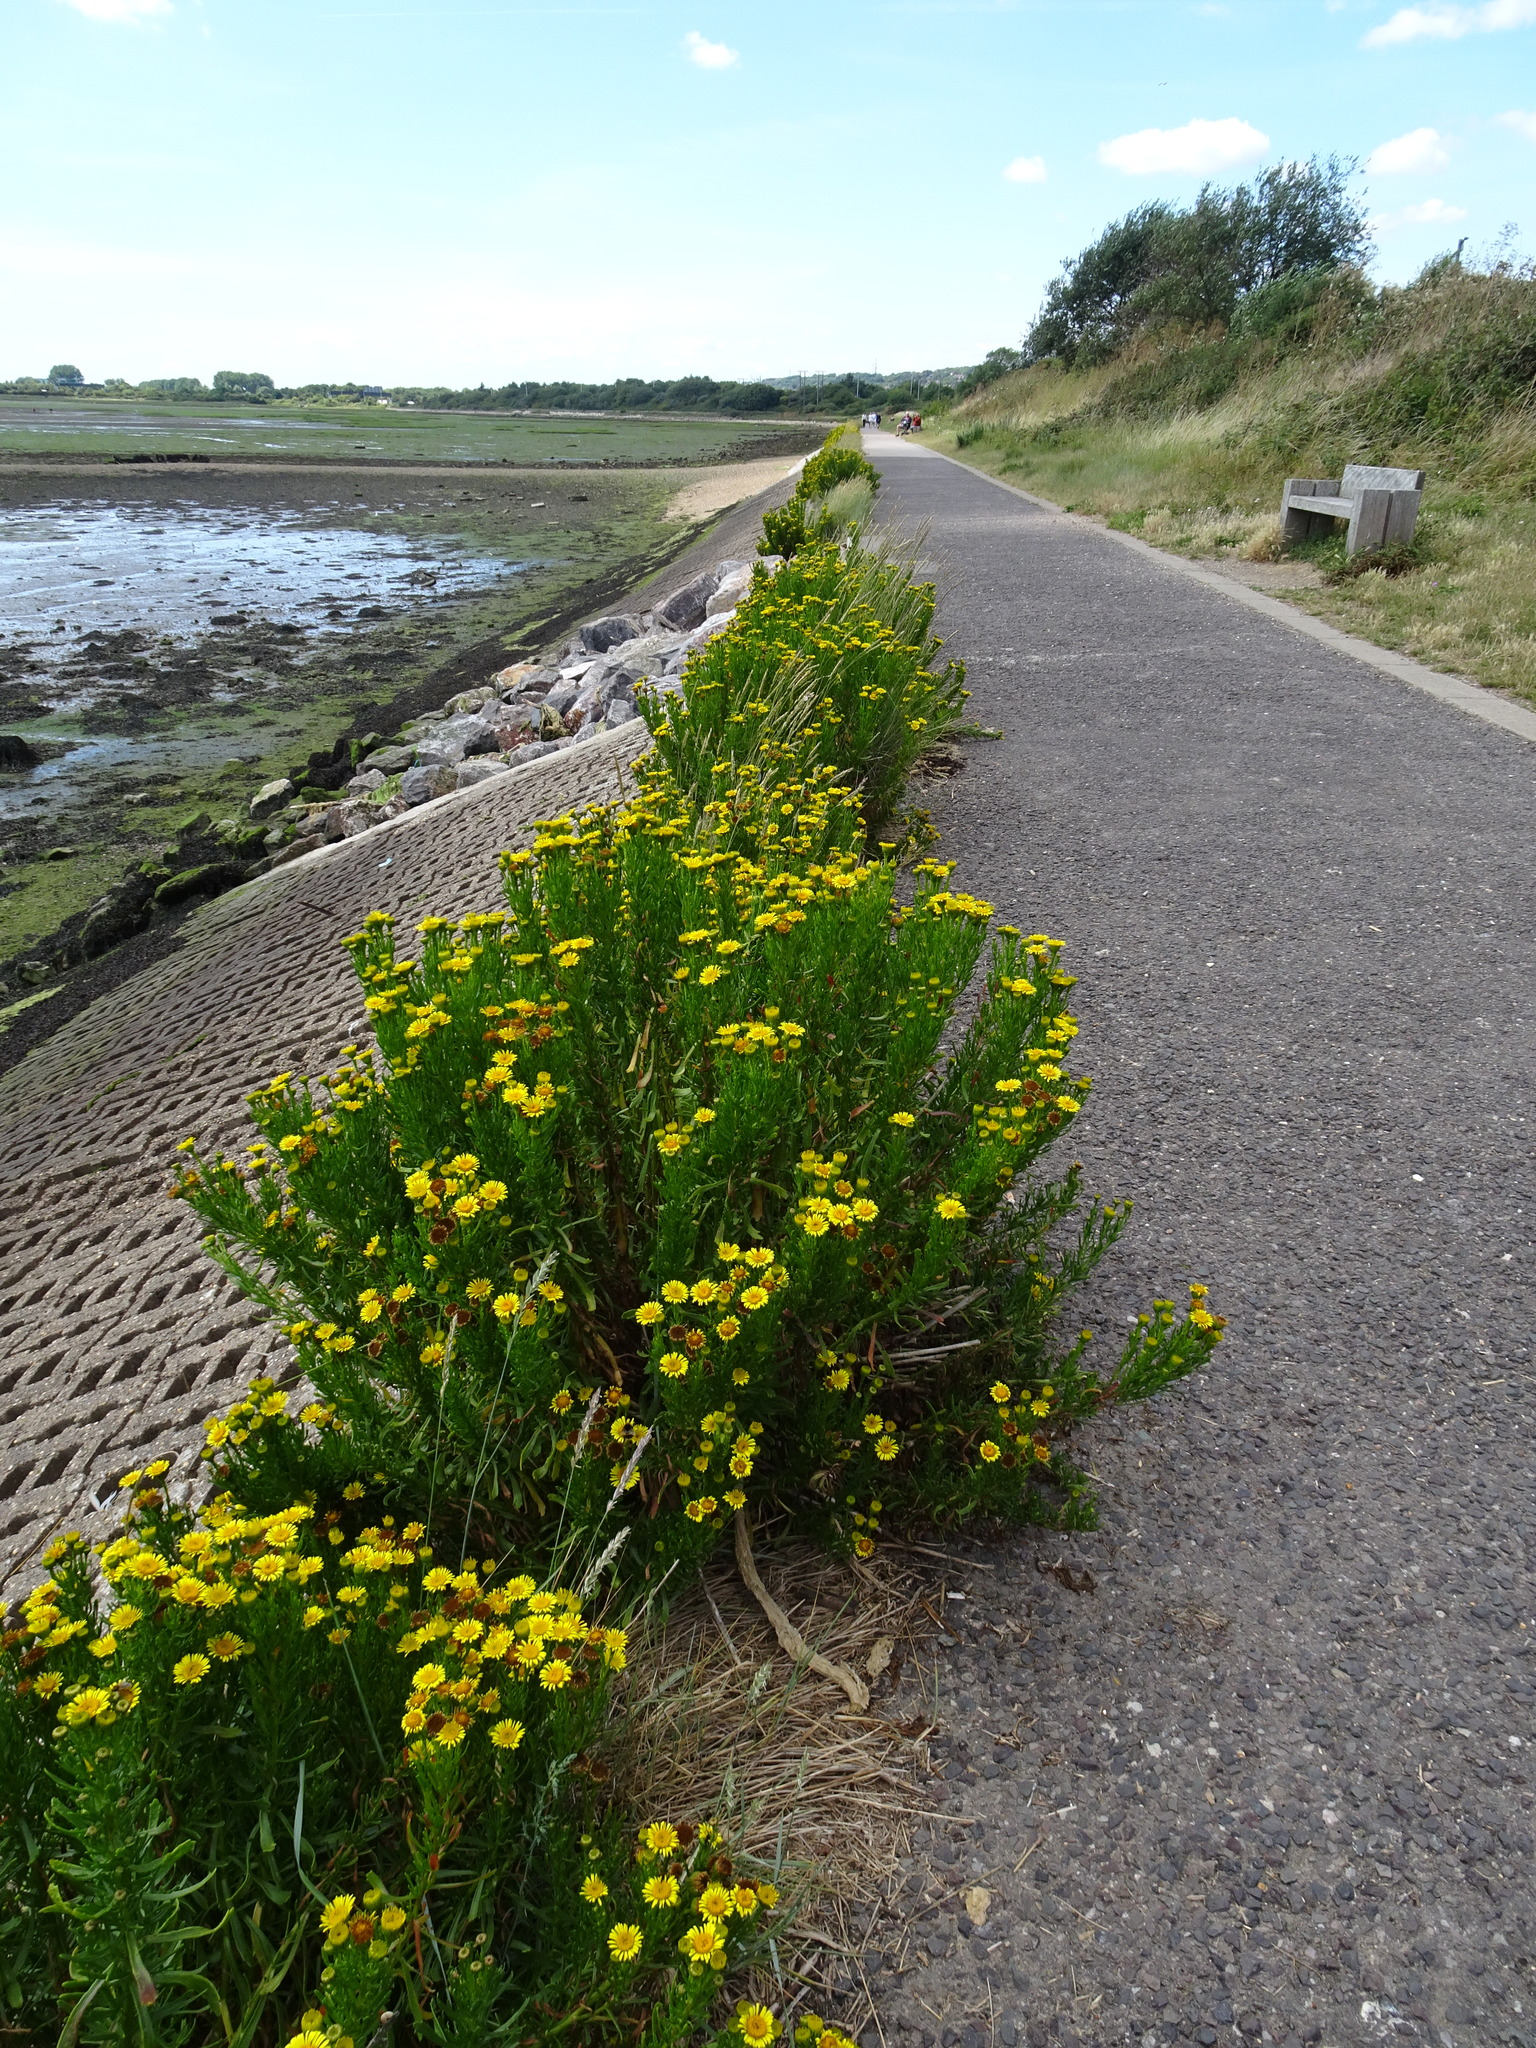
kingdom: Plantae
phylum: Tracheophyta
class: Magnoliopsida
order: Asterales
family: Asteraceae
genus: Limbarda
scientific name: Limbarda crithmoides
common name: Golden samphire
